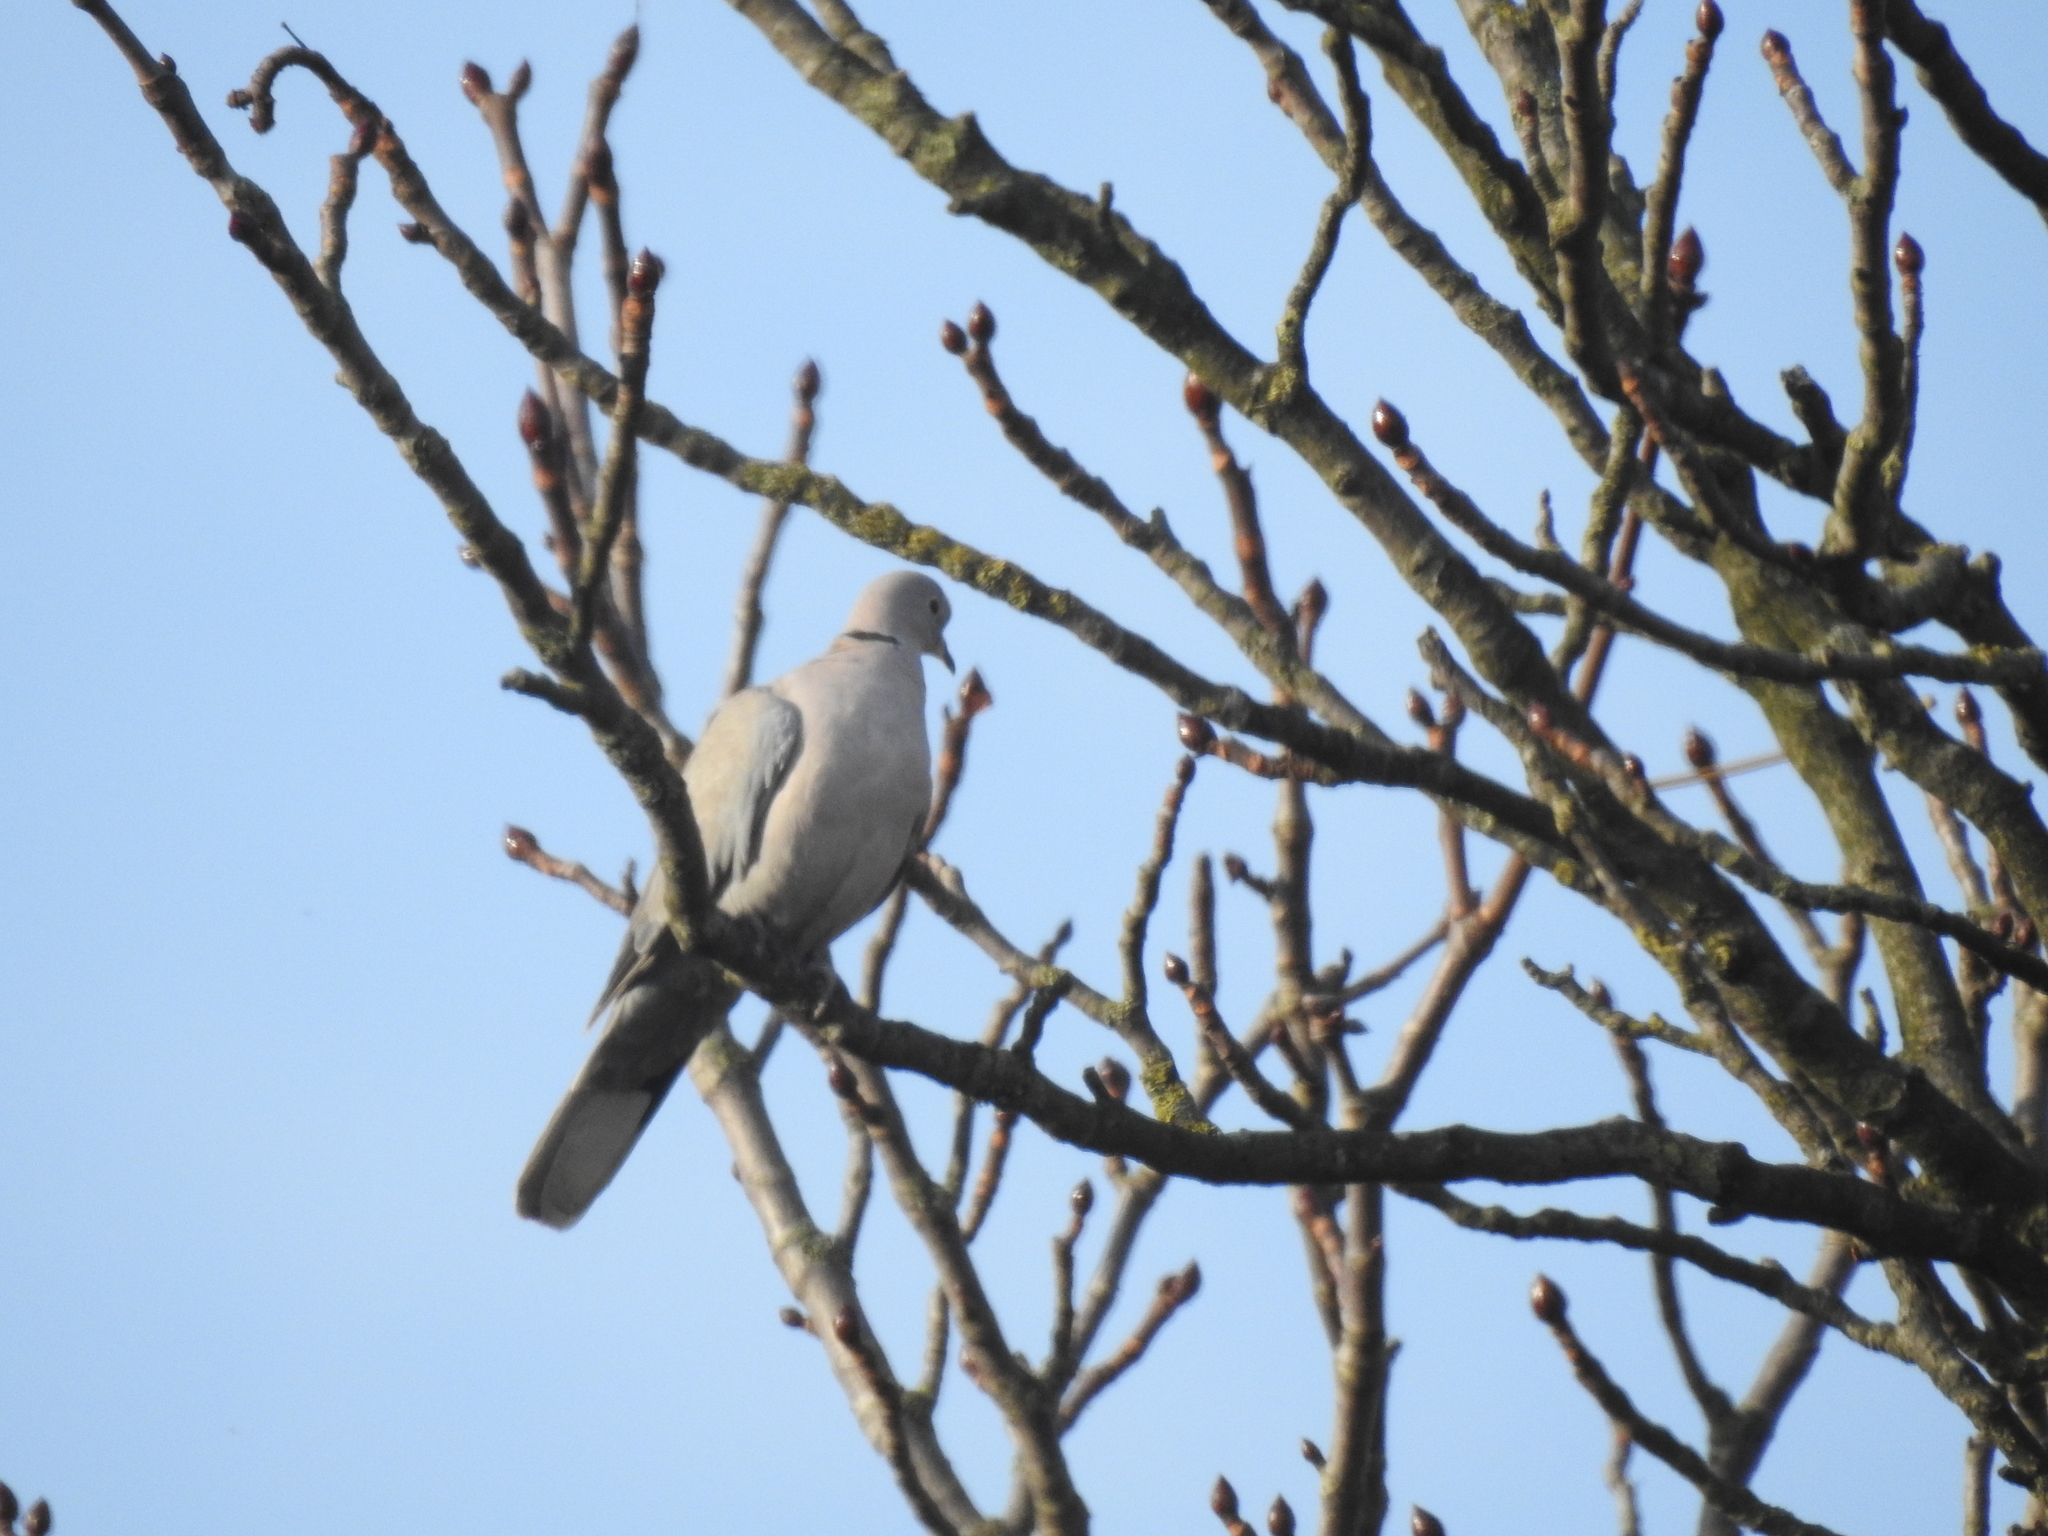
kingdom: Animalia
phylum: Chordata
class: Aves
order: Columbiformes
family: Columbidae
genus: Streptopelia
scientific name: Streptopelia decaocto
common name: Eurasian collared dove
